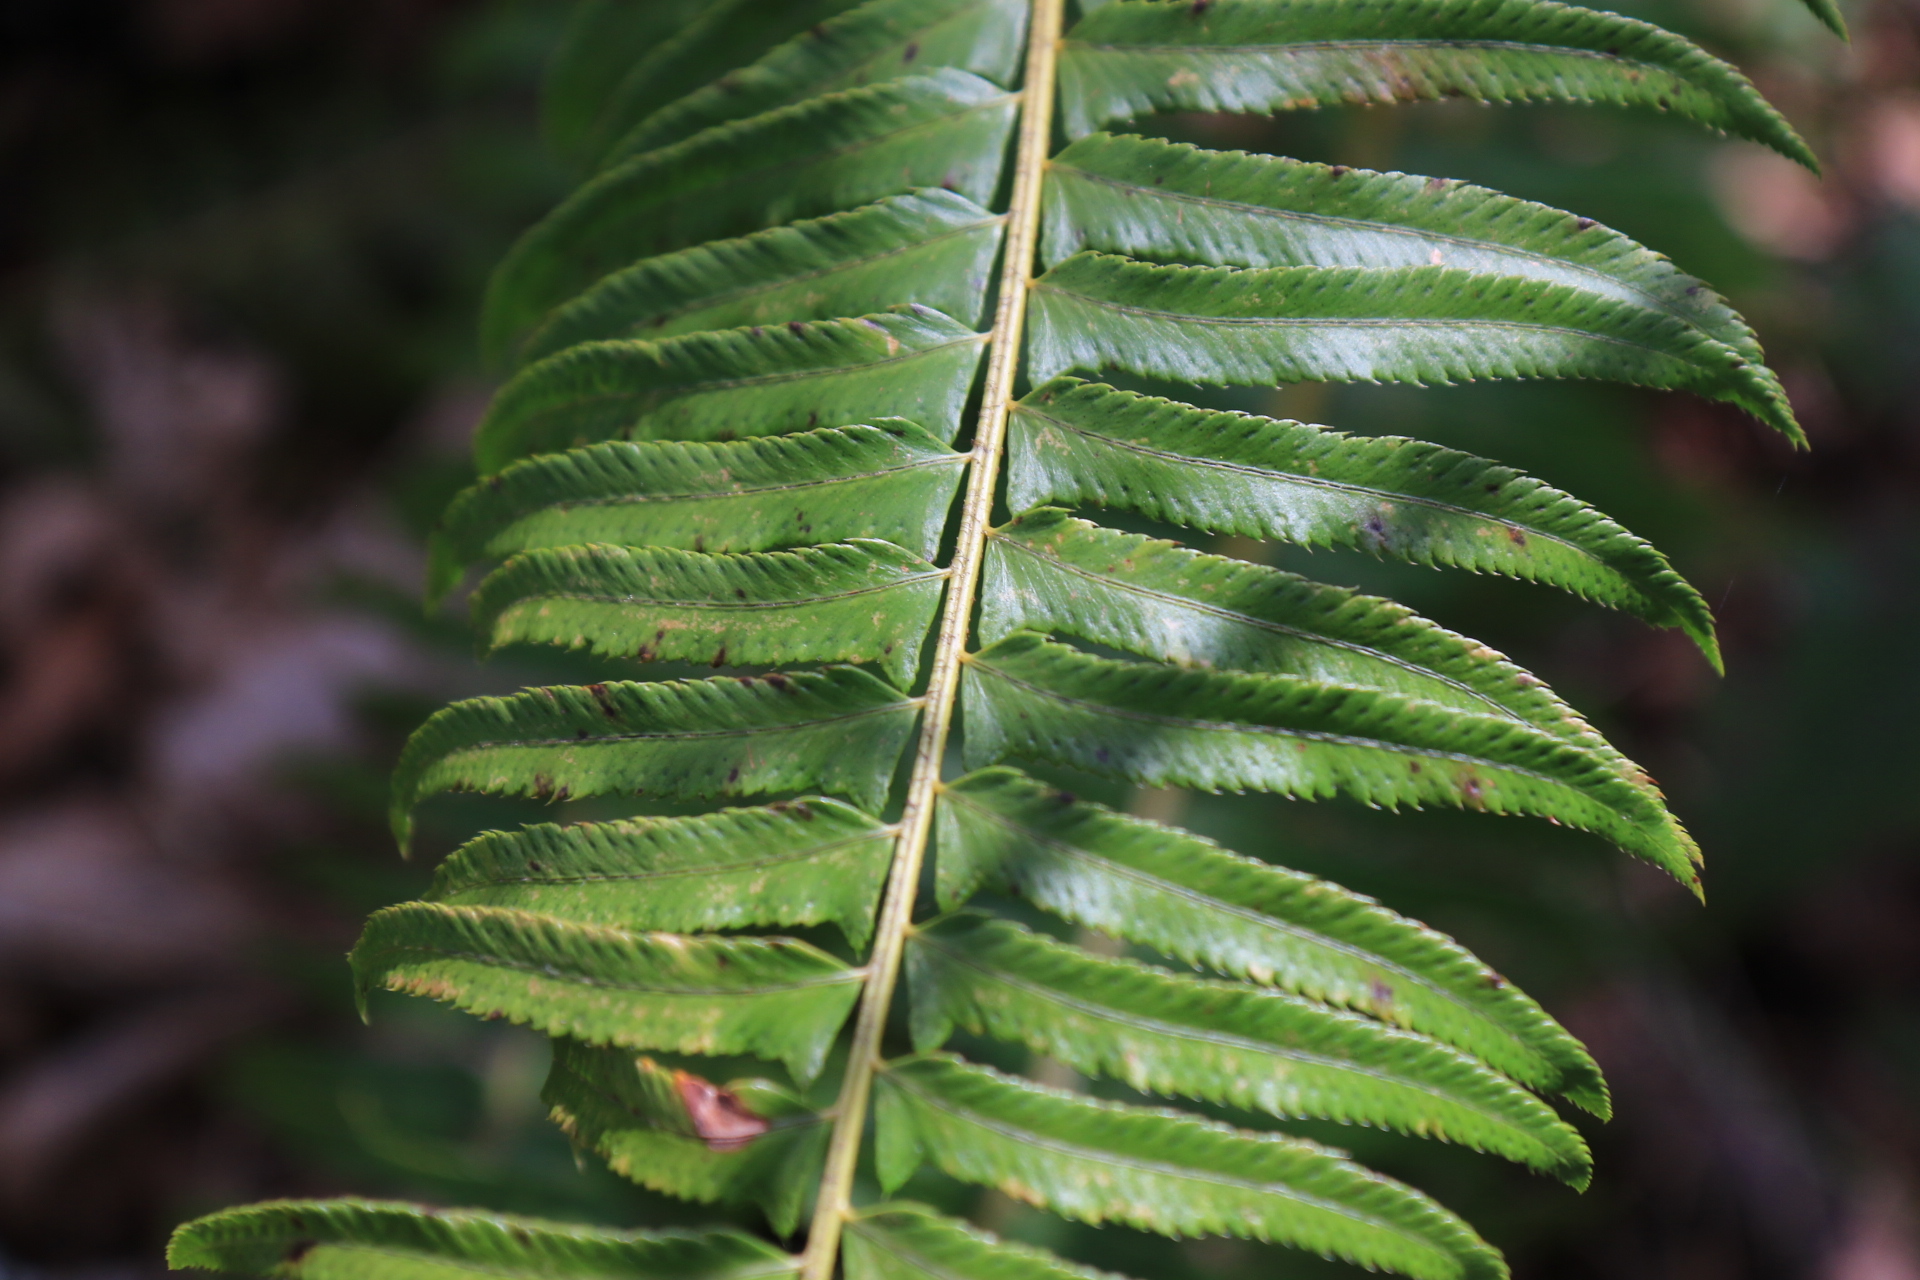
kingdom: Plantae
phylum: Tracheophyta
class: Polypodiopsida
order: Polypodiales
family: Dryopteridaceae
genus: Polystichum
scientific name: Polystichum munitum
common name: Western sword-fern
